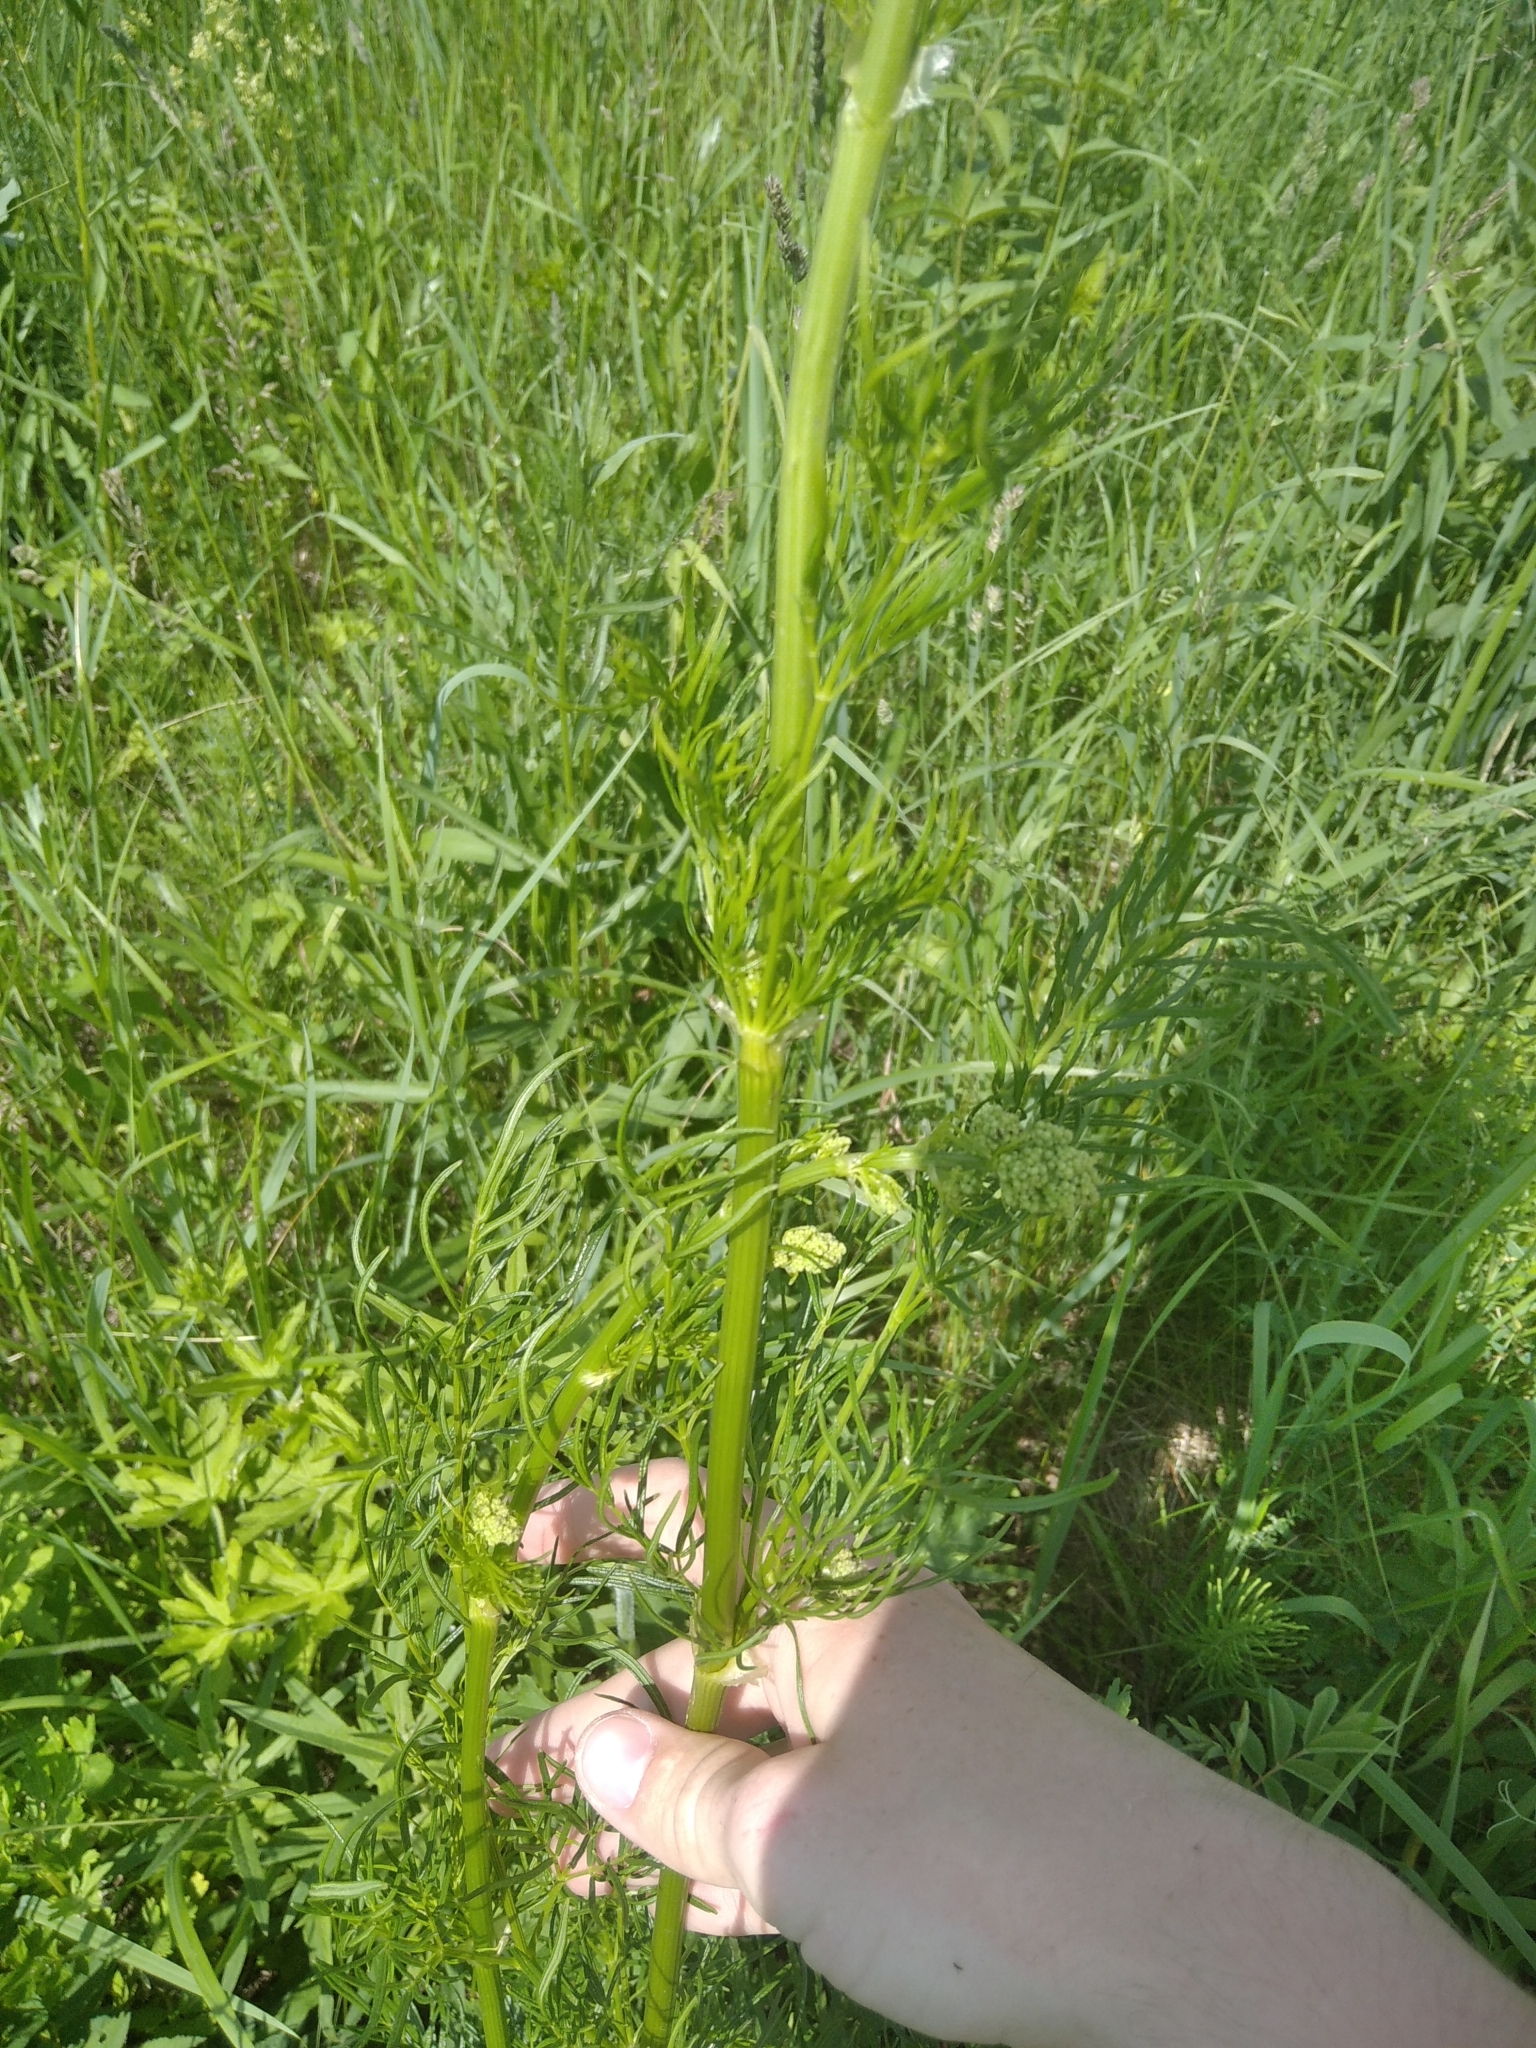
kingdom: Plantae
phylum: Tracheophyta
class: Magnoliopsida
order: Ranunculales
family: Ranunculaceae
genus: Thalictrum
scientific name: Thalictrum lucidum
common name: Shining meadow-rue
